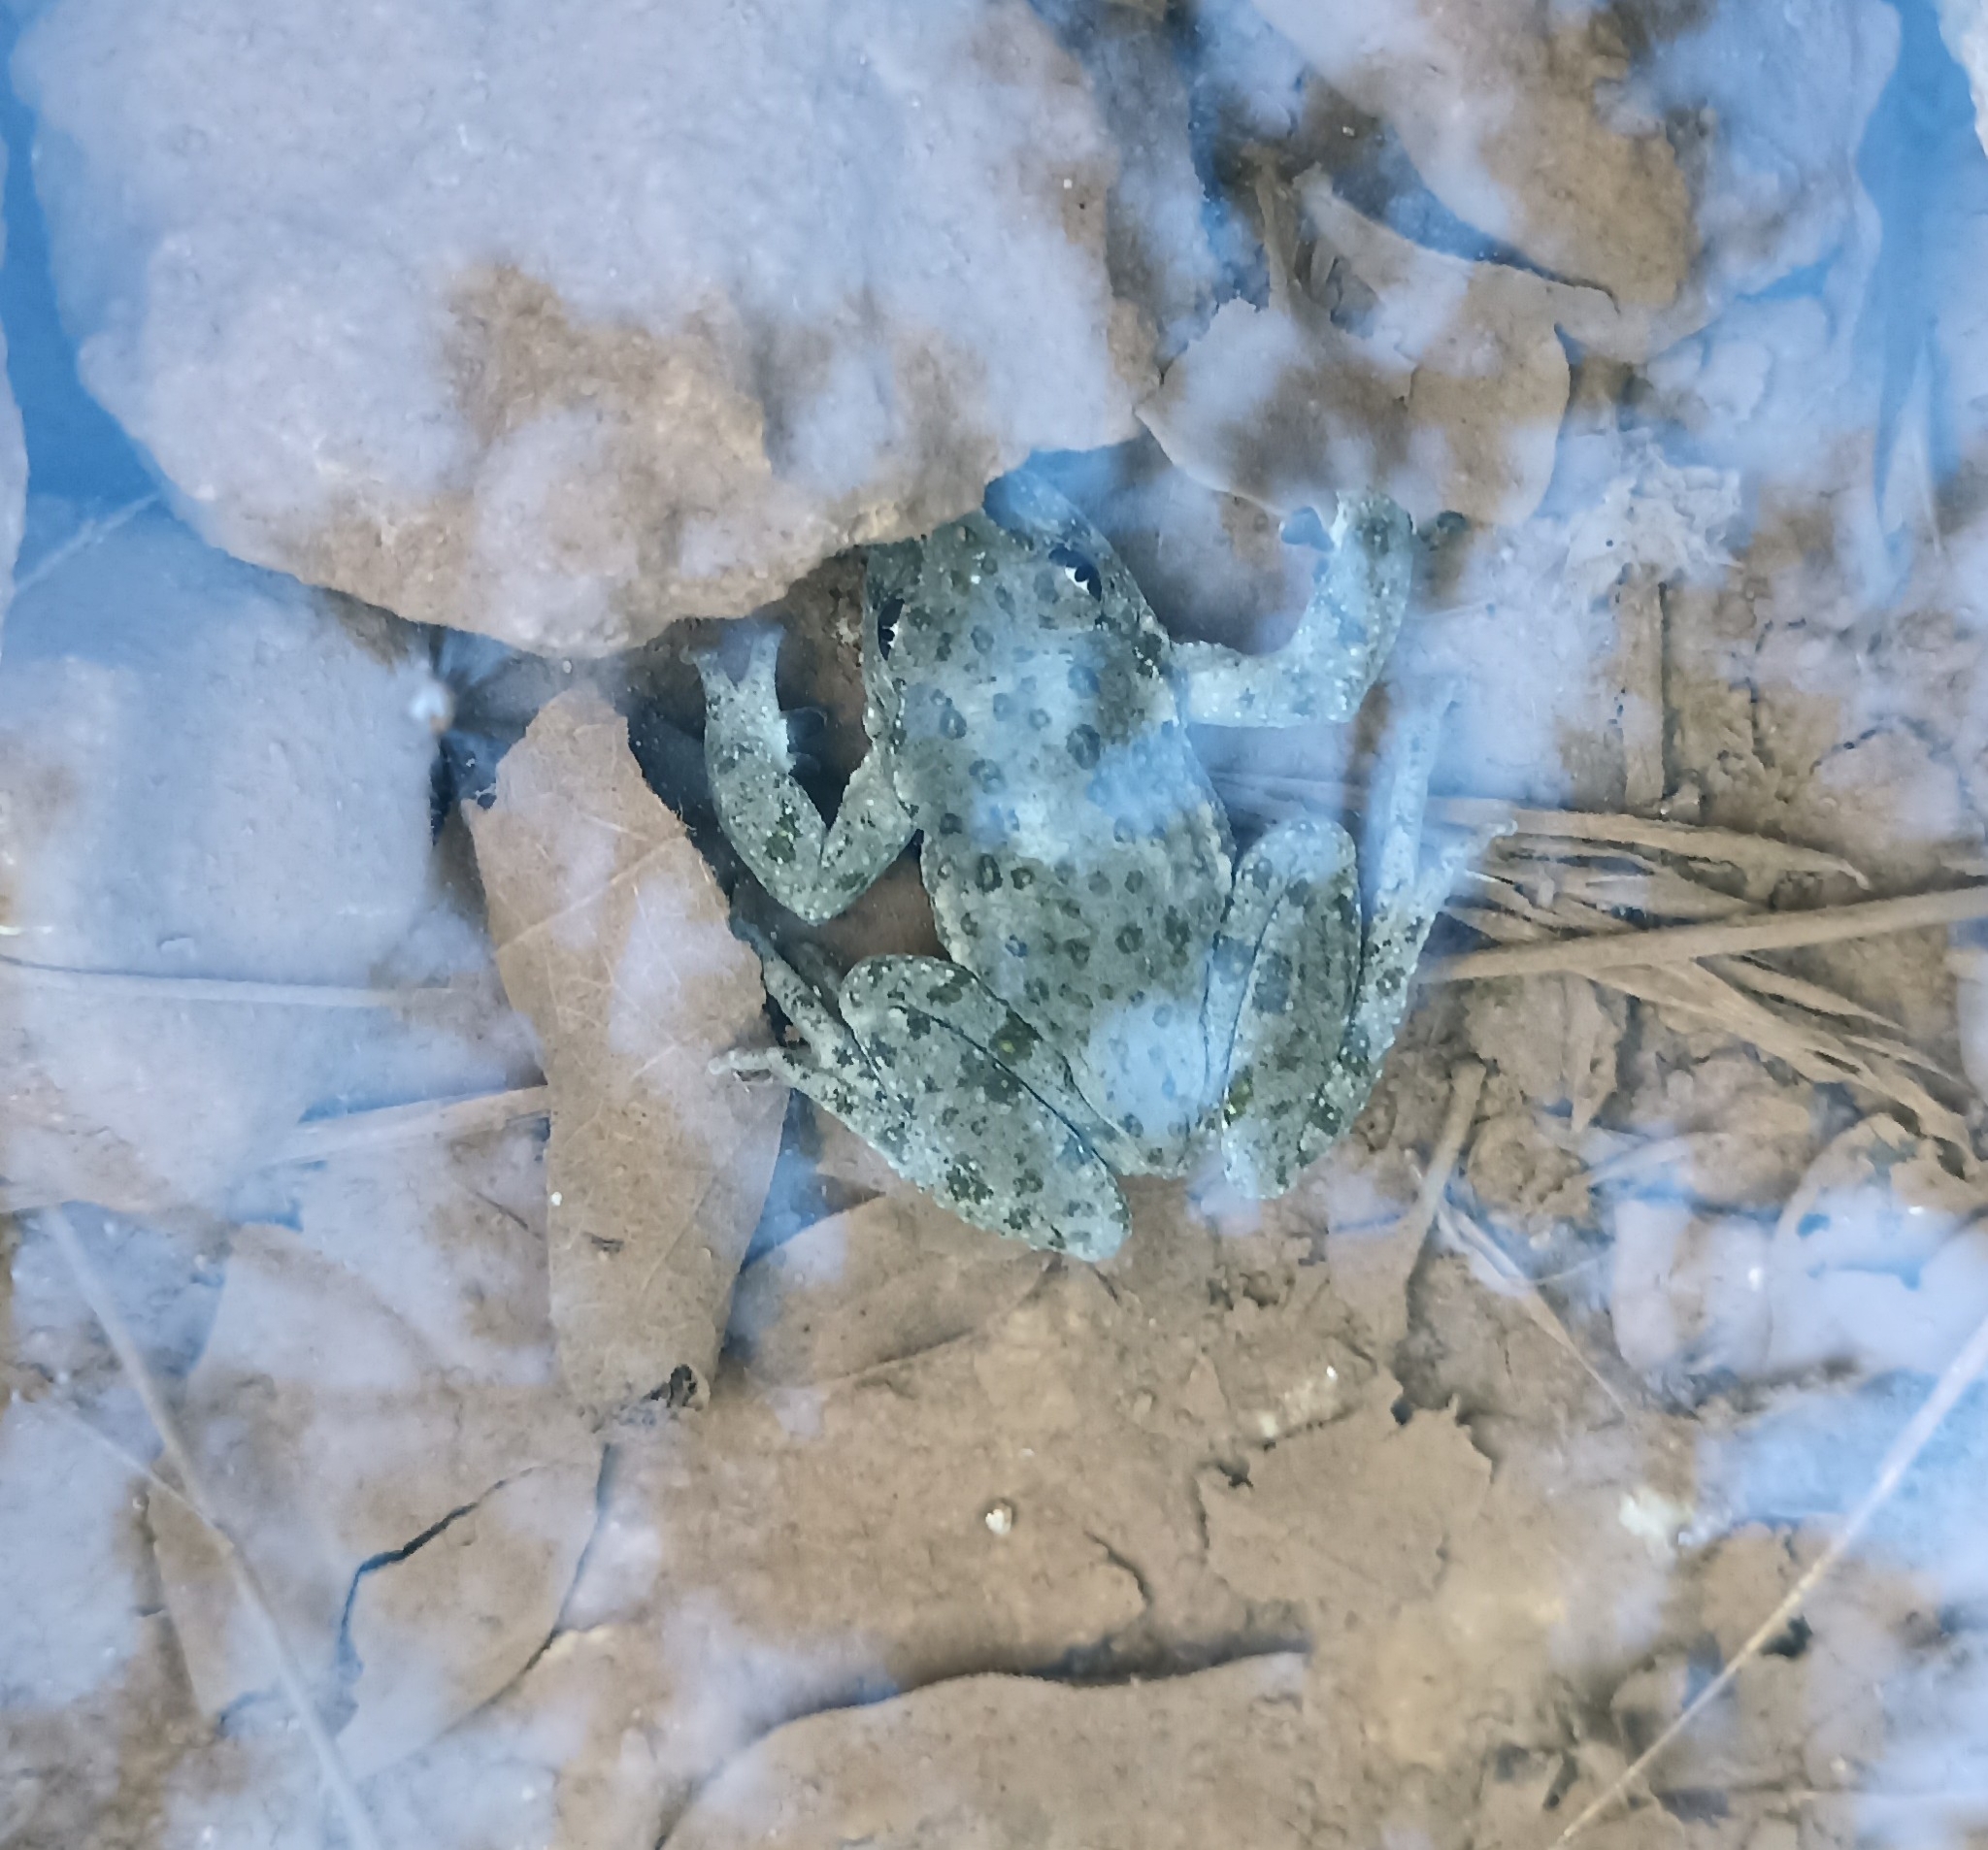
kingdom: Animalia
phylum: Chordata
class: Amphibia
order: Anura
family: Pelodytidae
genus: Pelodytes
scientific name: Pelodytes punctatus
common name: Parsley frog
